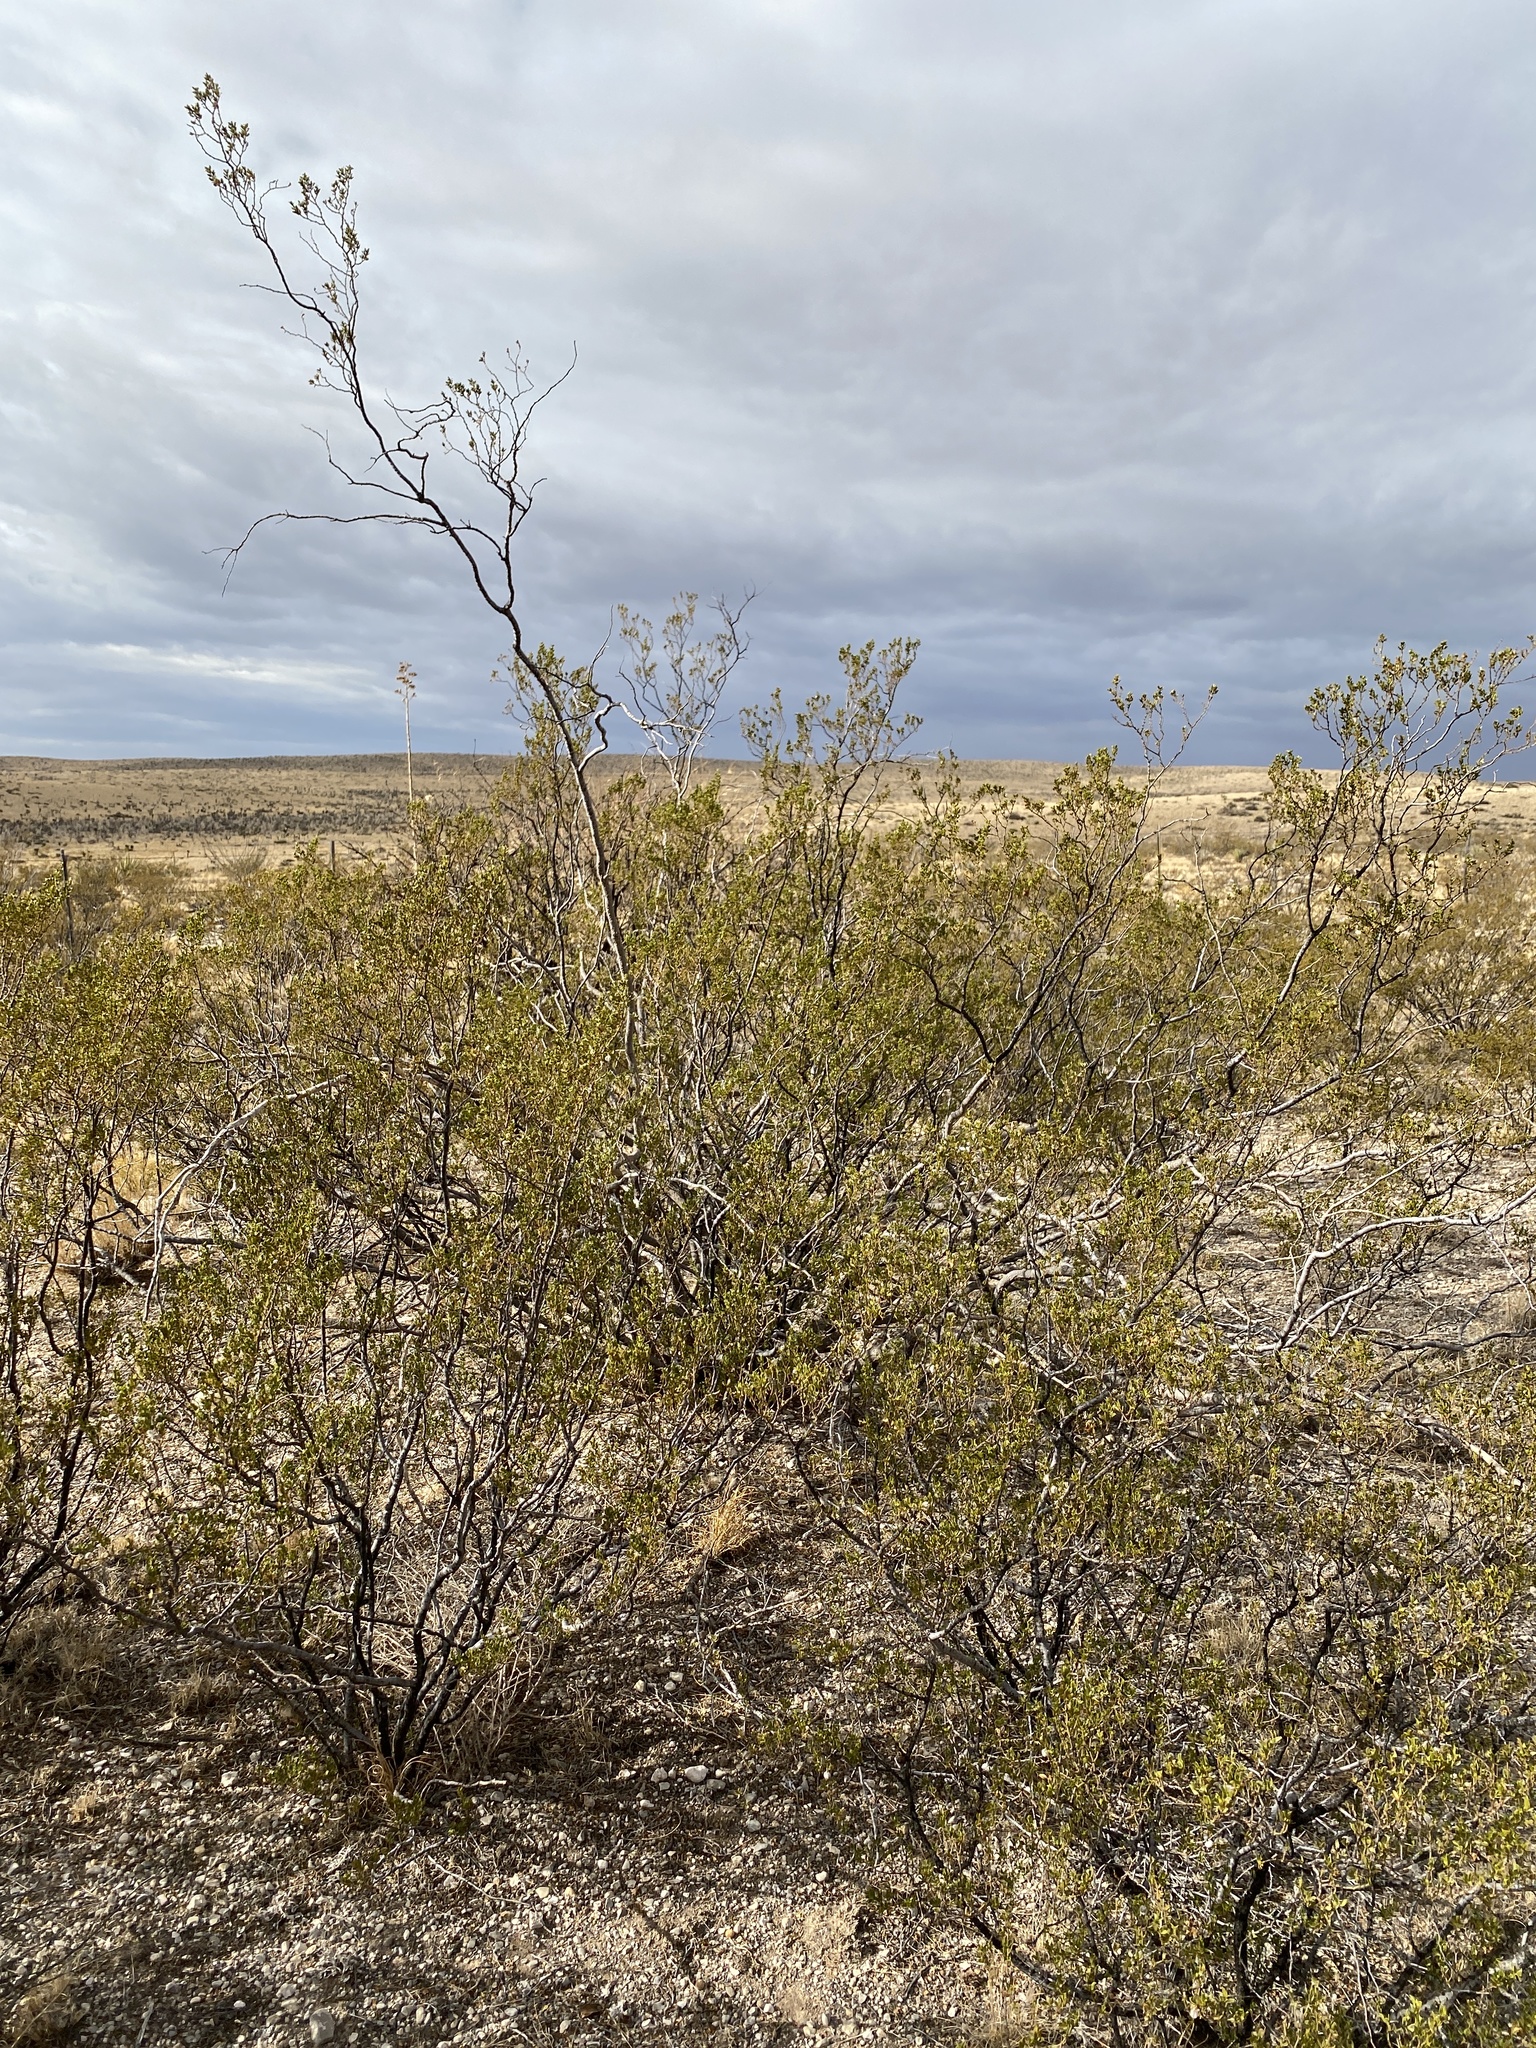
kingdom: Plantae
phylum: Tracheophyta
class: Magnoliopsida
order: Zygophyllales
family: Zygophyllaceae
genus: Larrea
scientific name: Larrea tridentata
